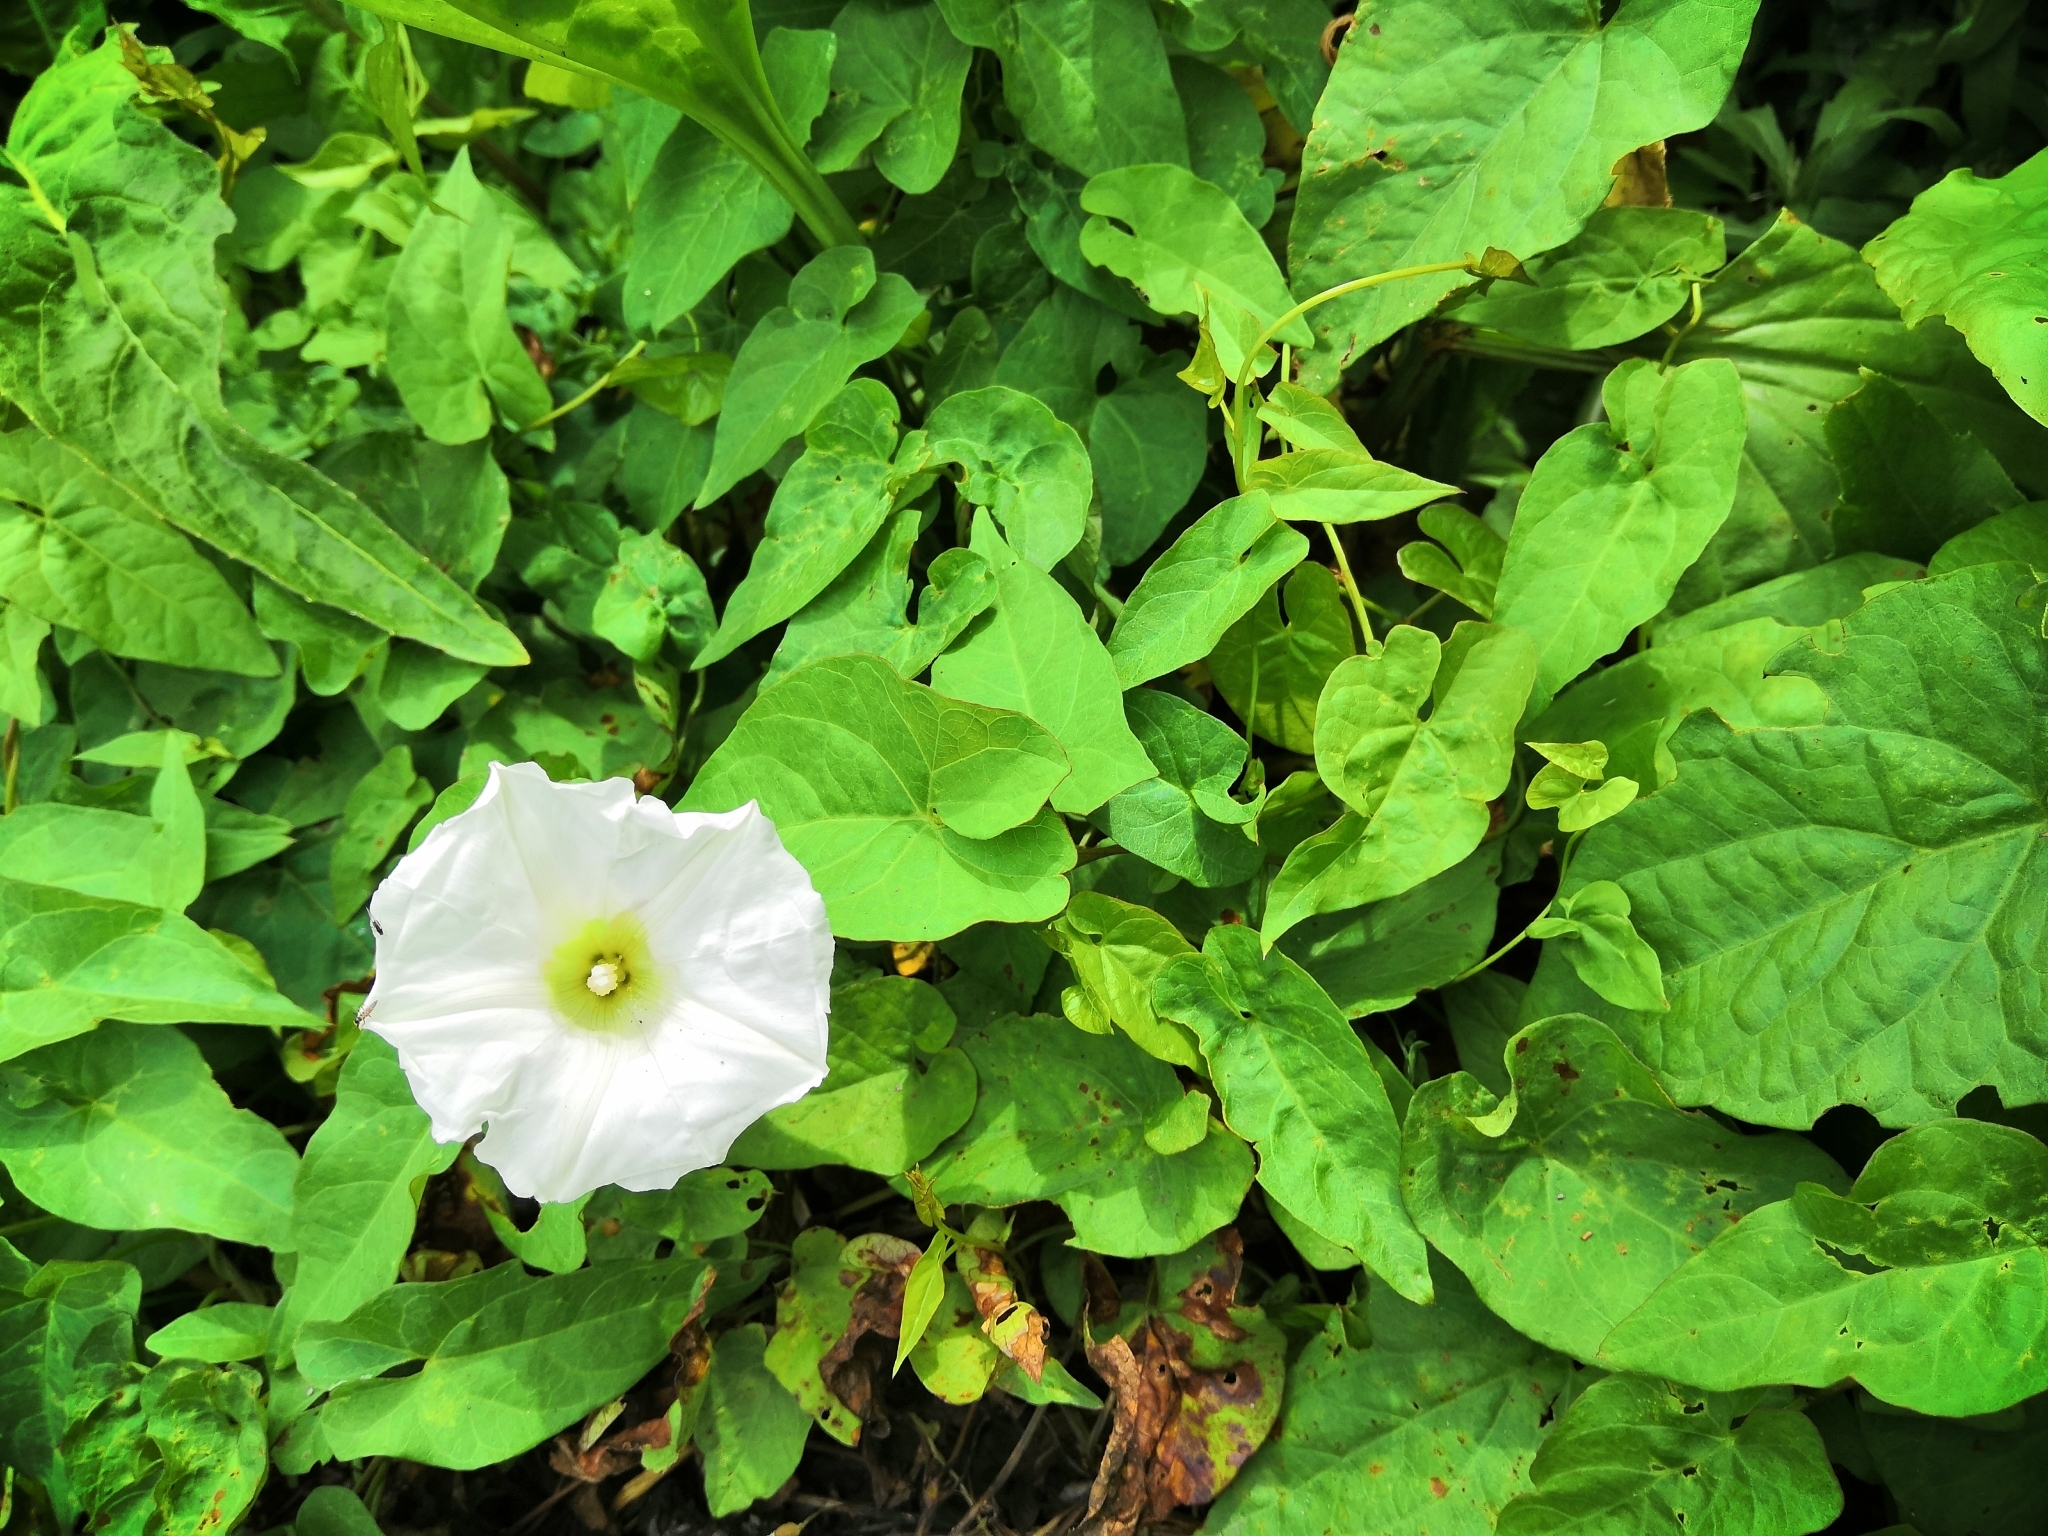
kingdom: Plantae
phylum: Tracheophyta
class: Magnoliopsida
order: Solanales
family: Convolvulaceae
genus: Calystegia
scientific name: Calystegia sepium
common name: Hedge bindweed
